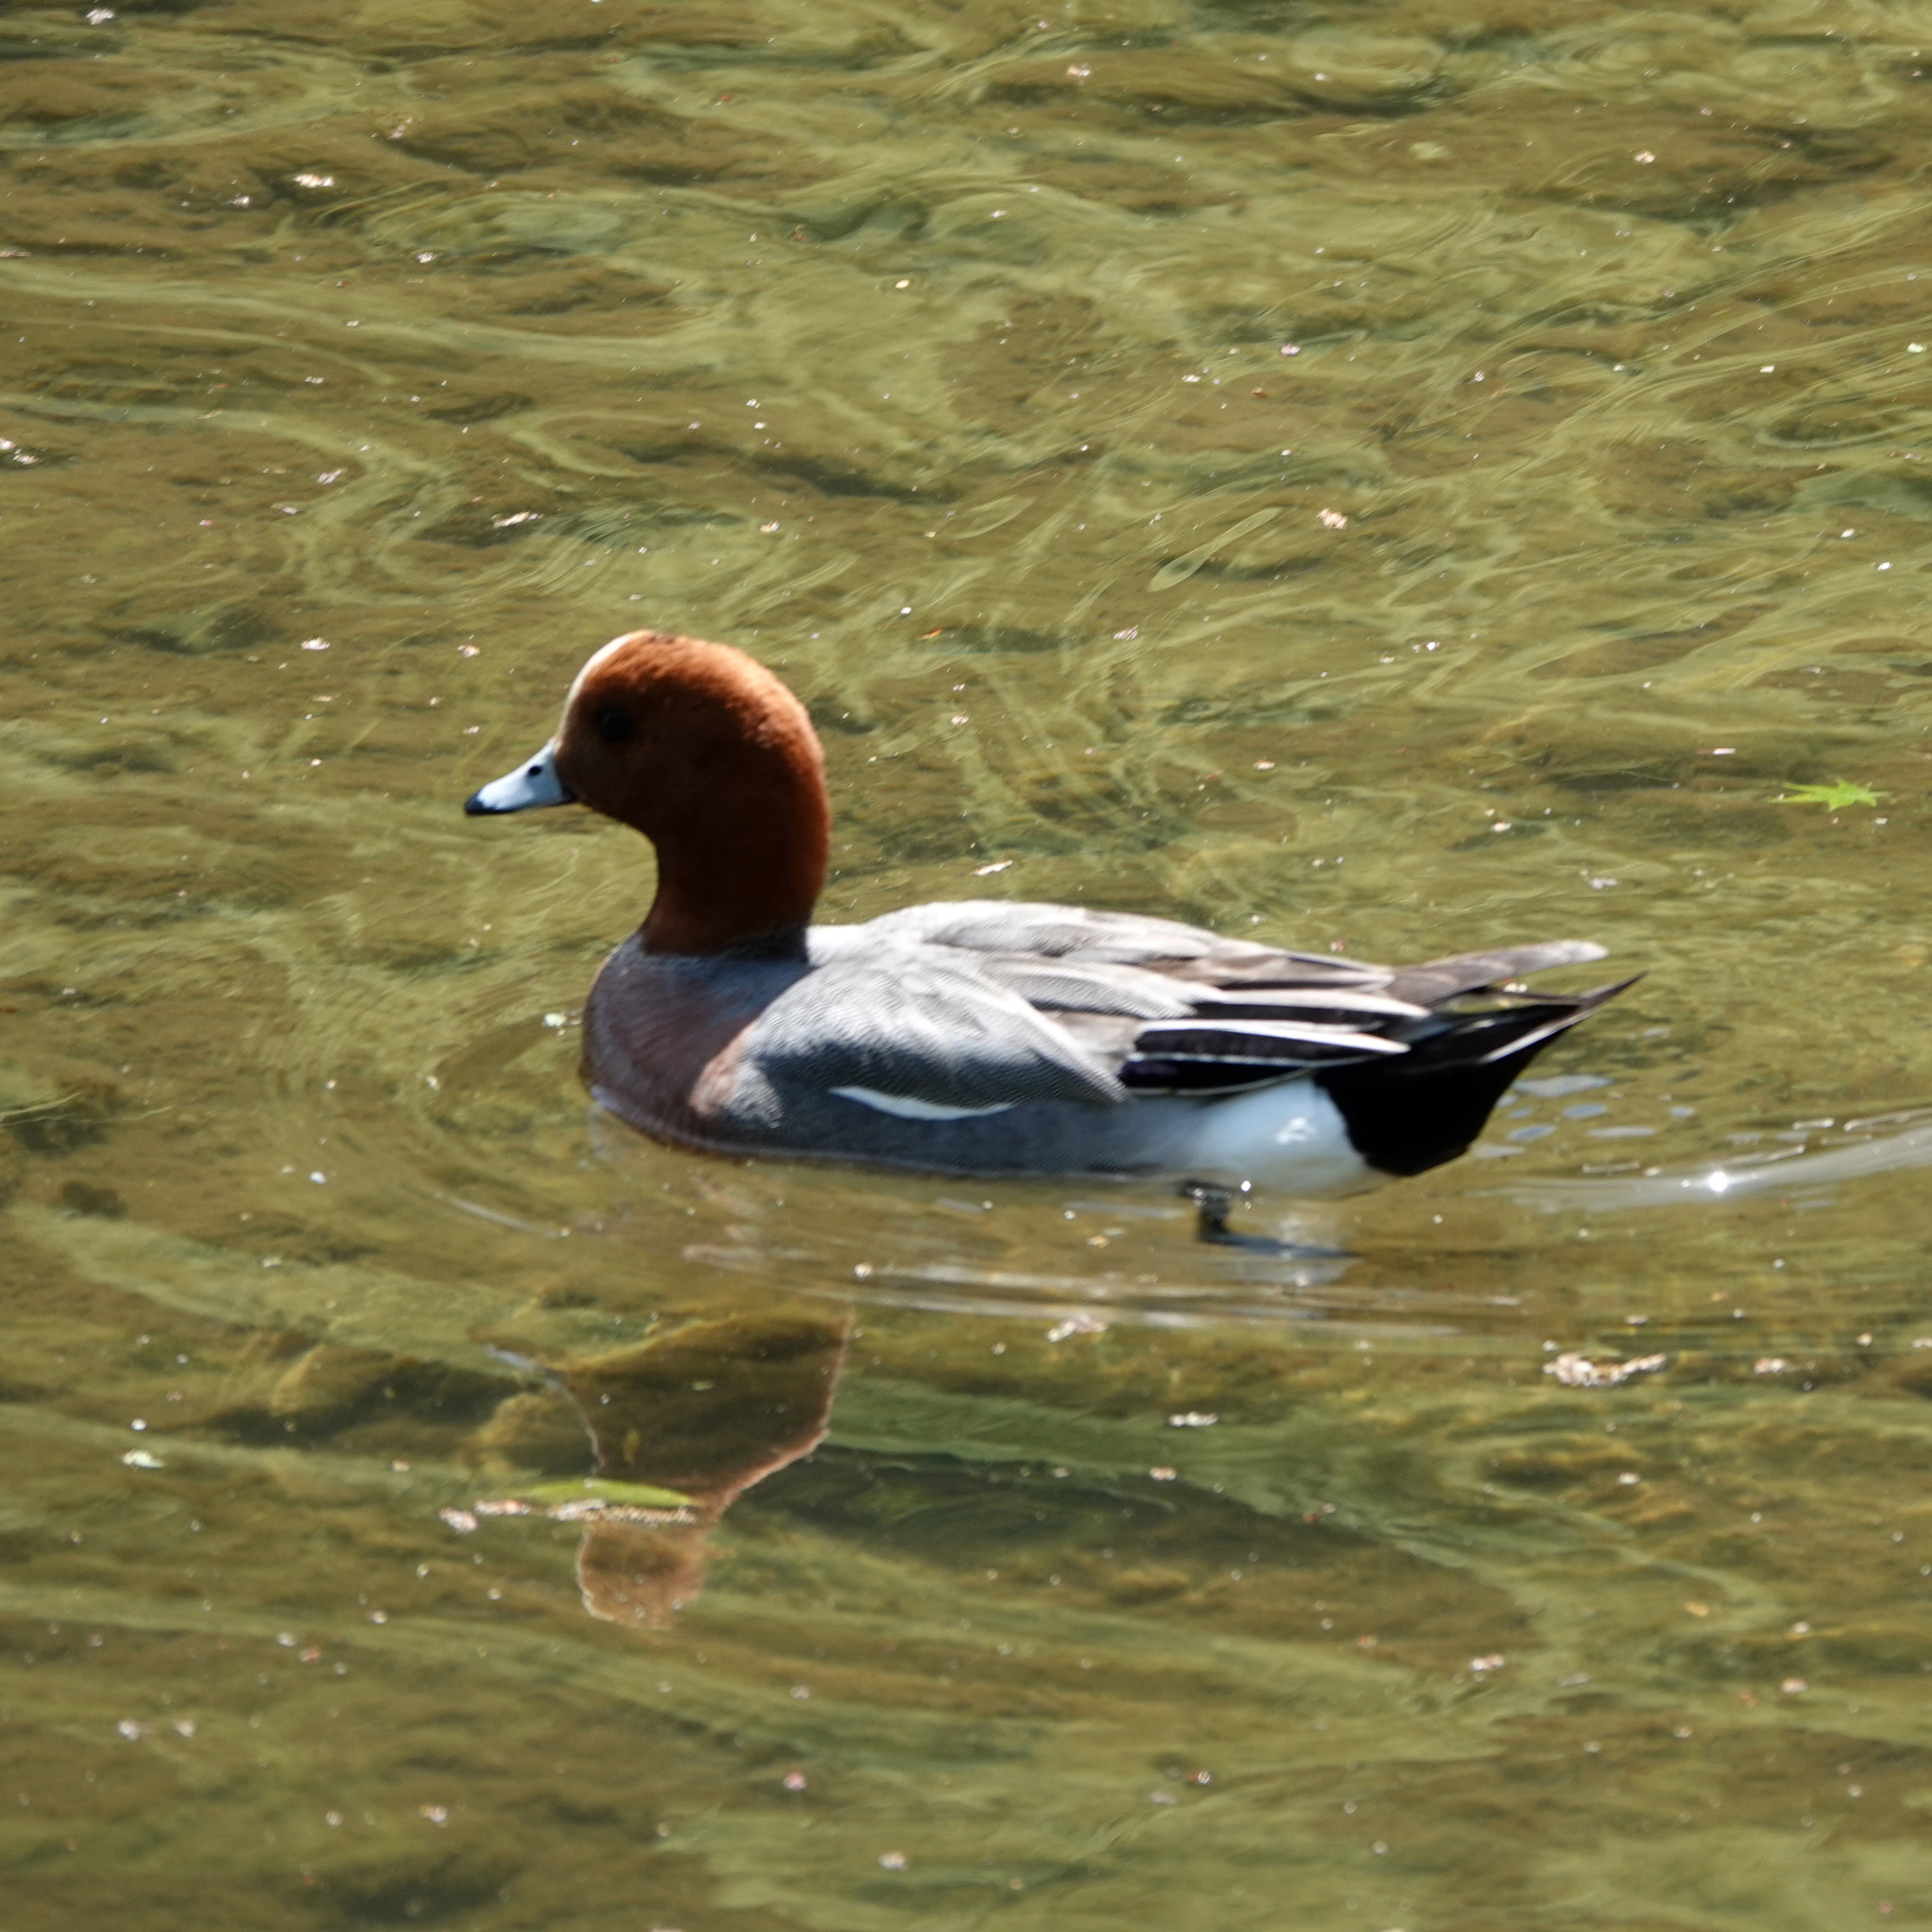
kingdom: Animalia
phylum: Chordata
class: Aves
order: Anseriformes
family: Anatidae
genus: Mareca
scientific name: Mareca penelope
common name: Eurasian wigeon
